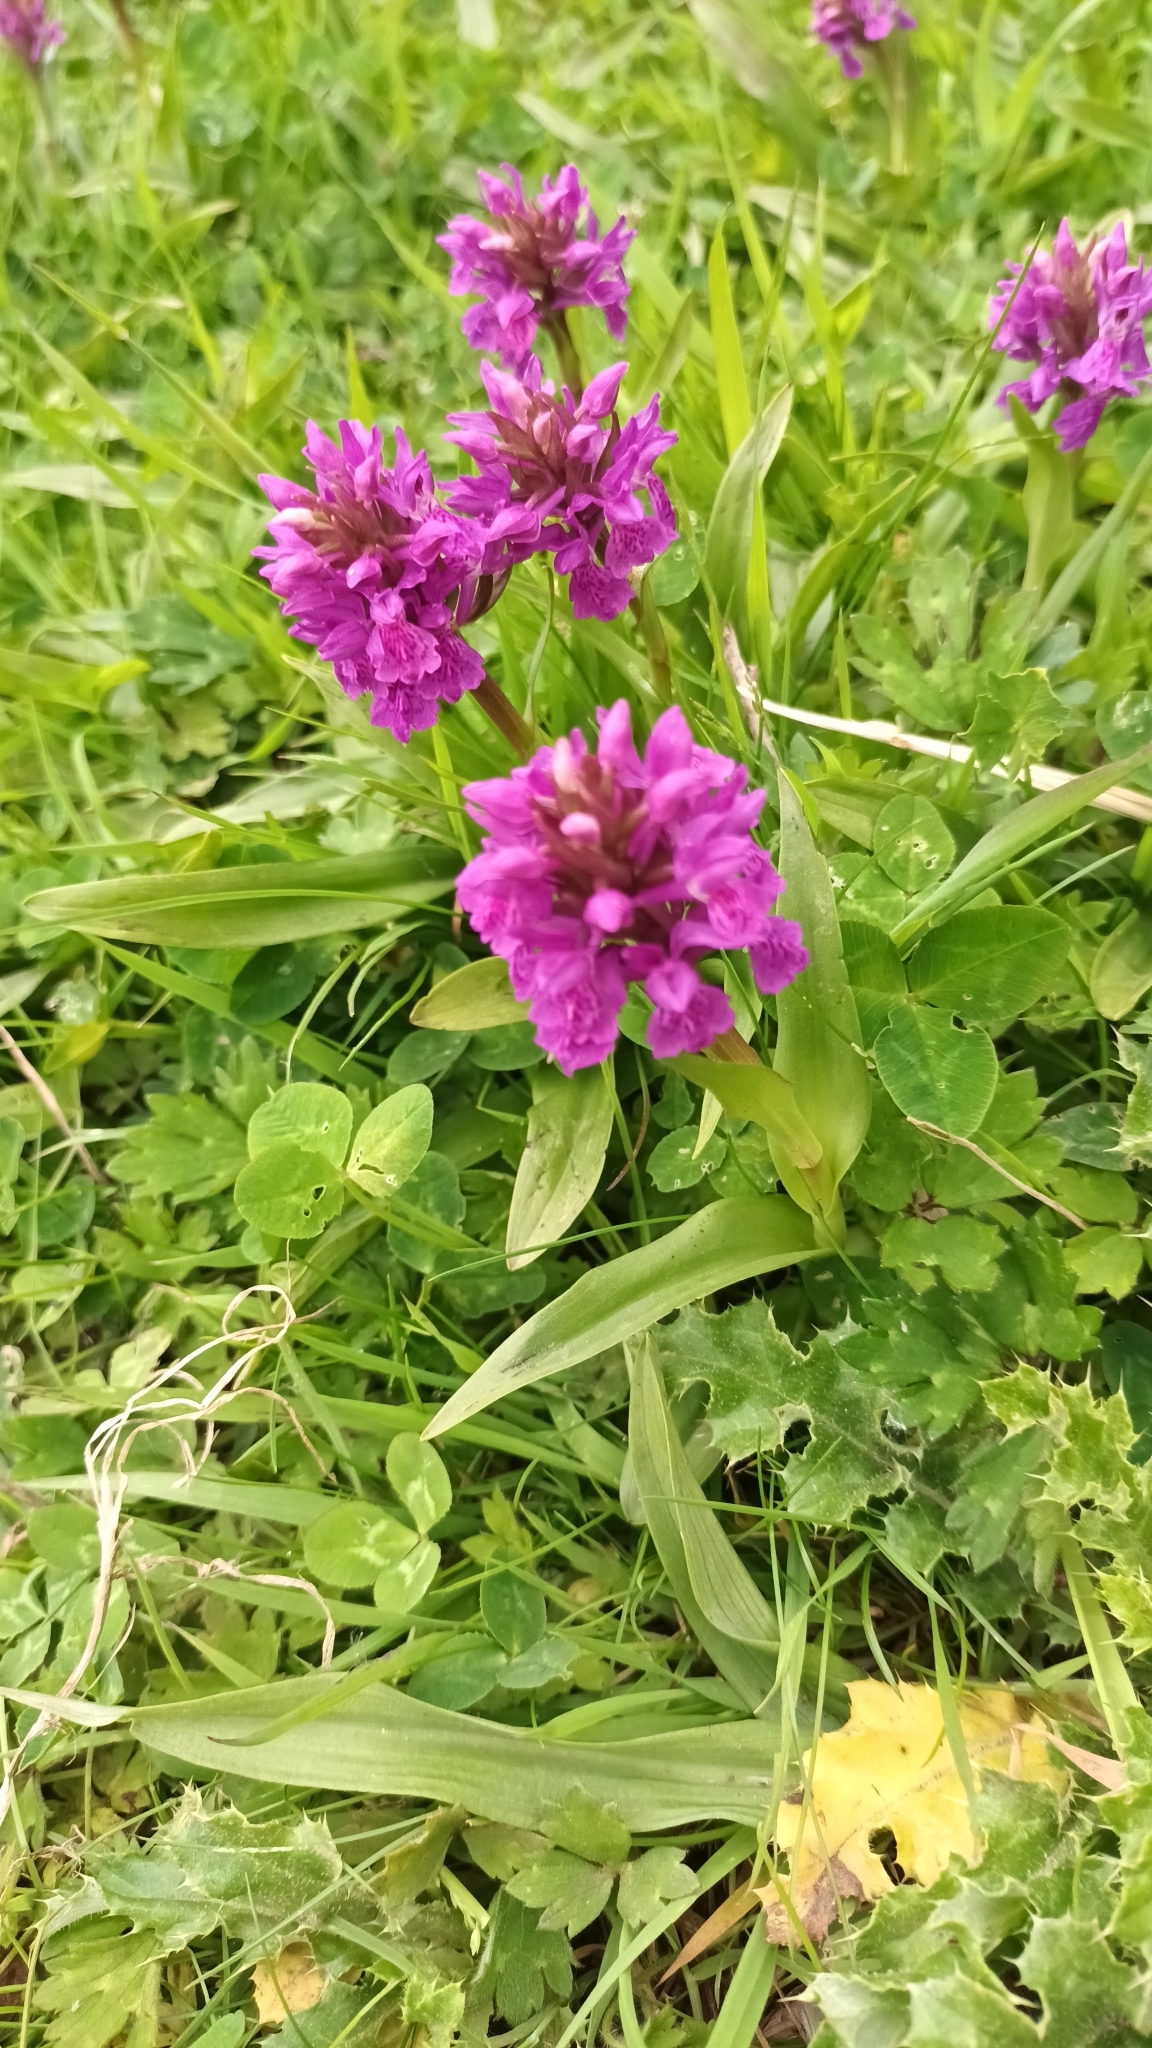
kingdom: Plantae
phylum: Tracheophyta
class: Liliopsida
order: Asparagales
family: Orchidaceae
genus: Dactylorhiza
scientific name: Dactylorhiza majalis
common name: Marsh orchid
